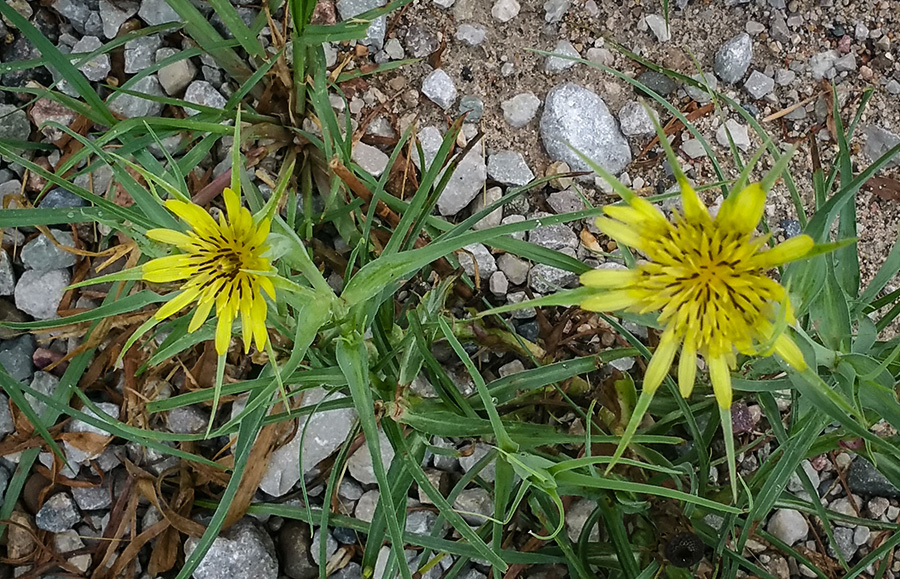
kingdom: Plantae
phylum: Tracheophyta
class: Magnoliopsida
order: Asterales
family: Asteraceae
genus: Tragopogon
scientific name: Tragopogon dubius
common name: Yellow salsify
